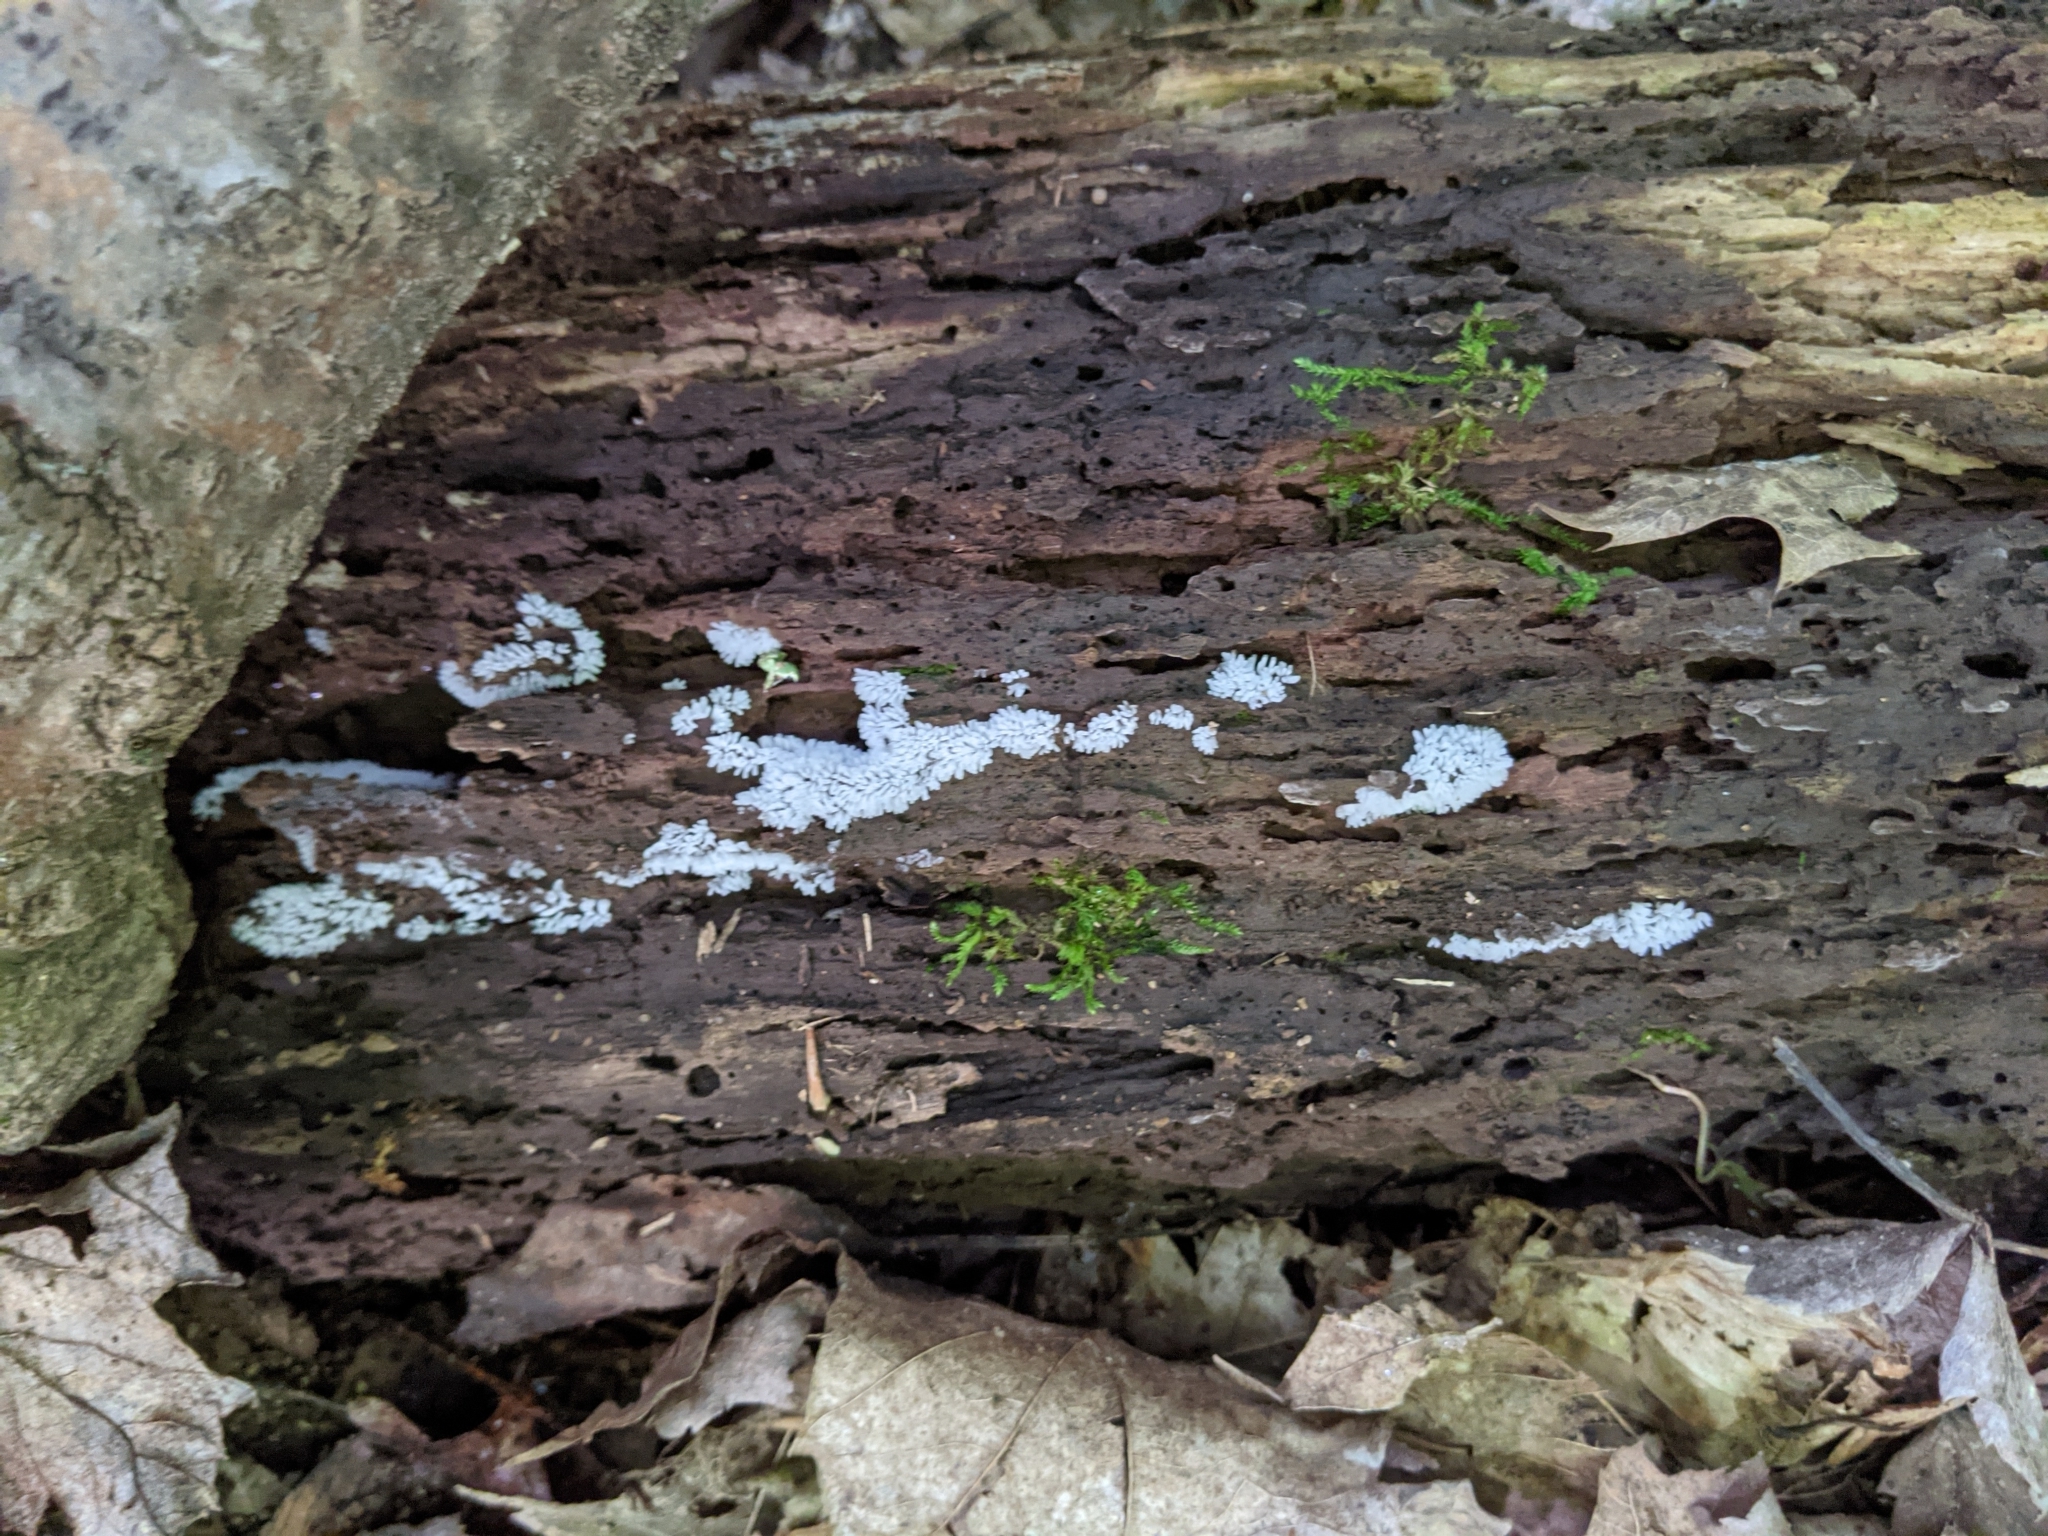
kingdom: Protozoa
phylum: Mycetozoa
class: Protosteliomycetes
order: Ceratiomyxales
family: Ceratiomyxaceae
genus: Ceratiomyxa
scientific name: Ceratiomyxa fruticulosa
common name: Honeycomb coral slime mold
